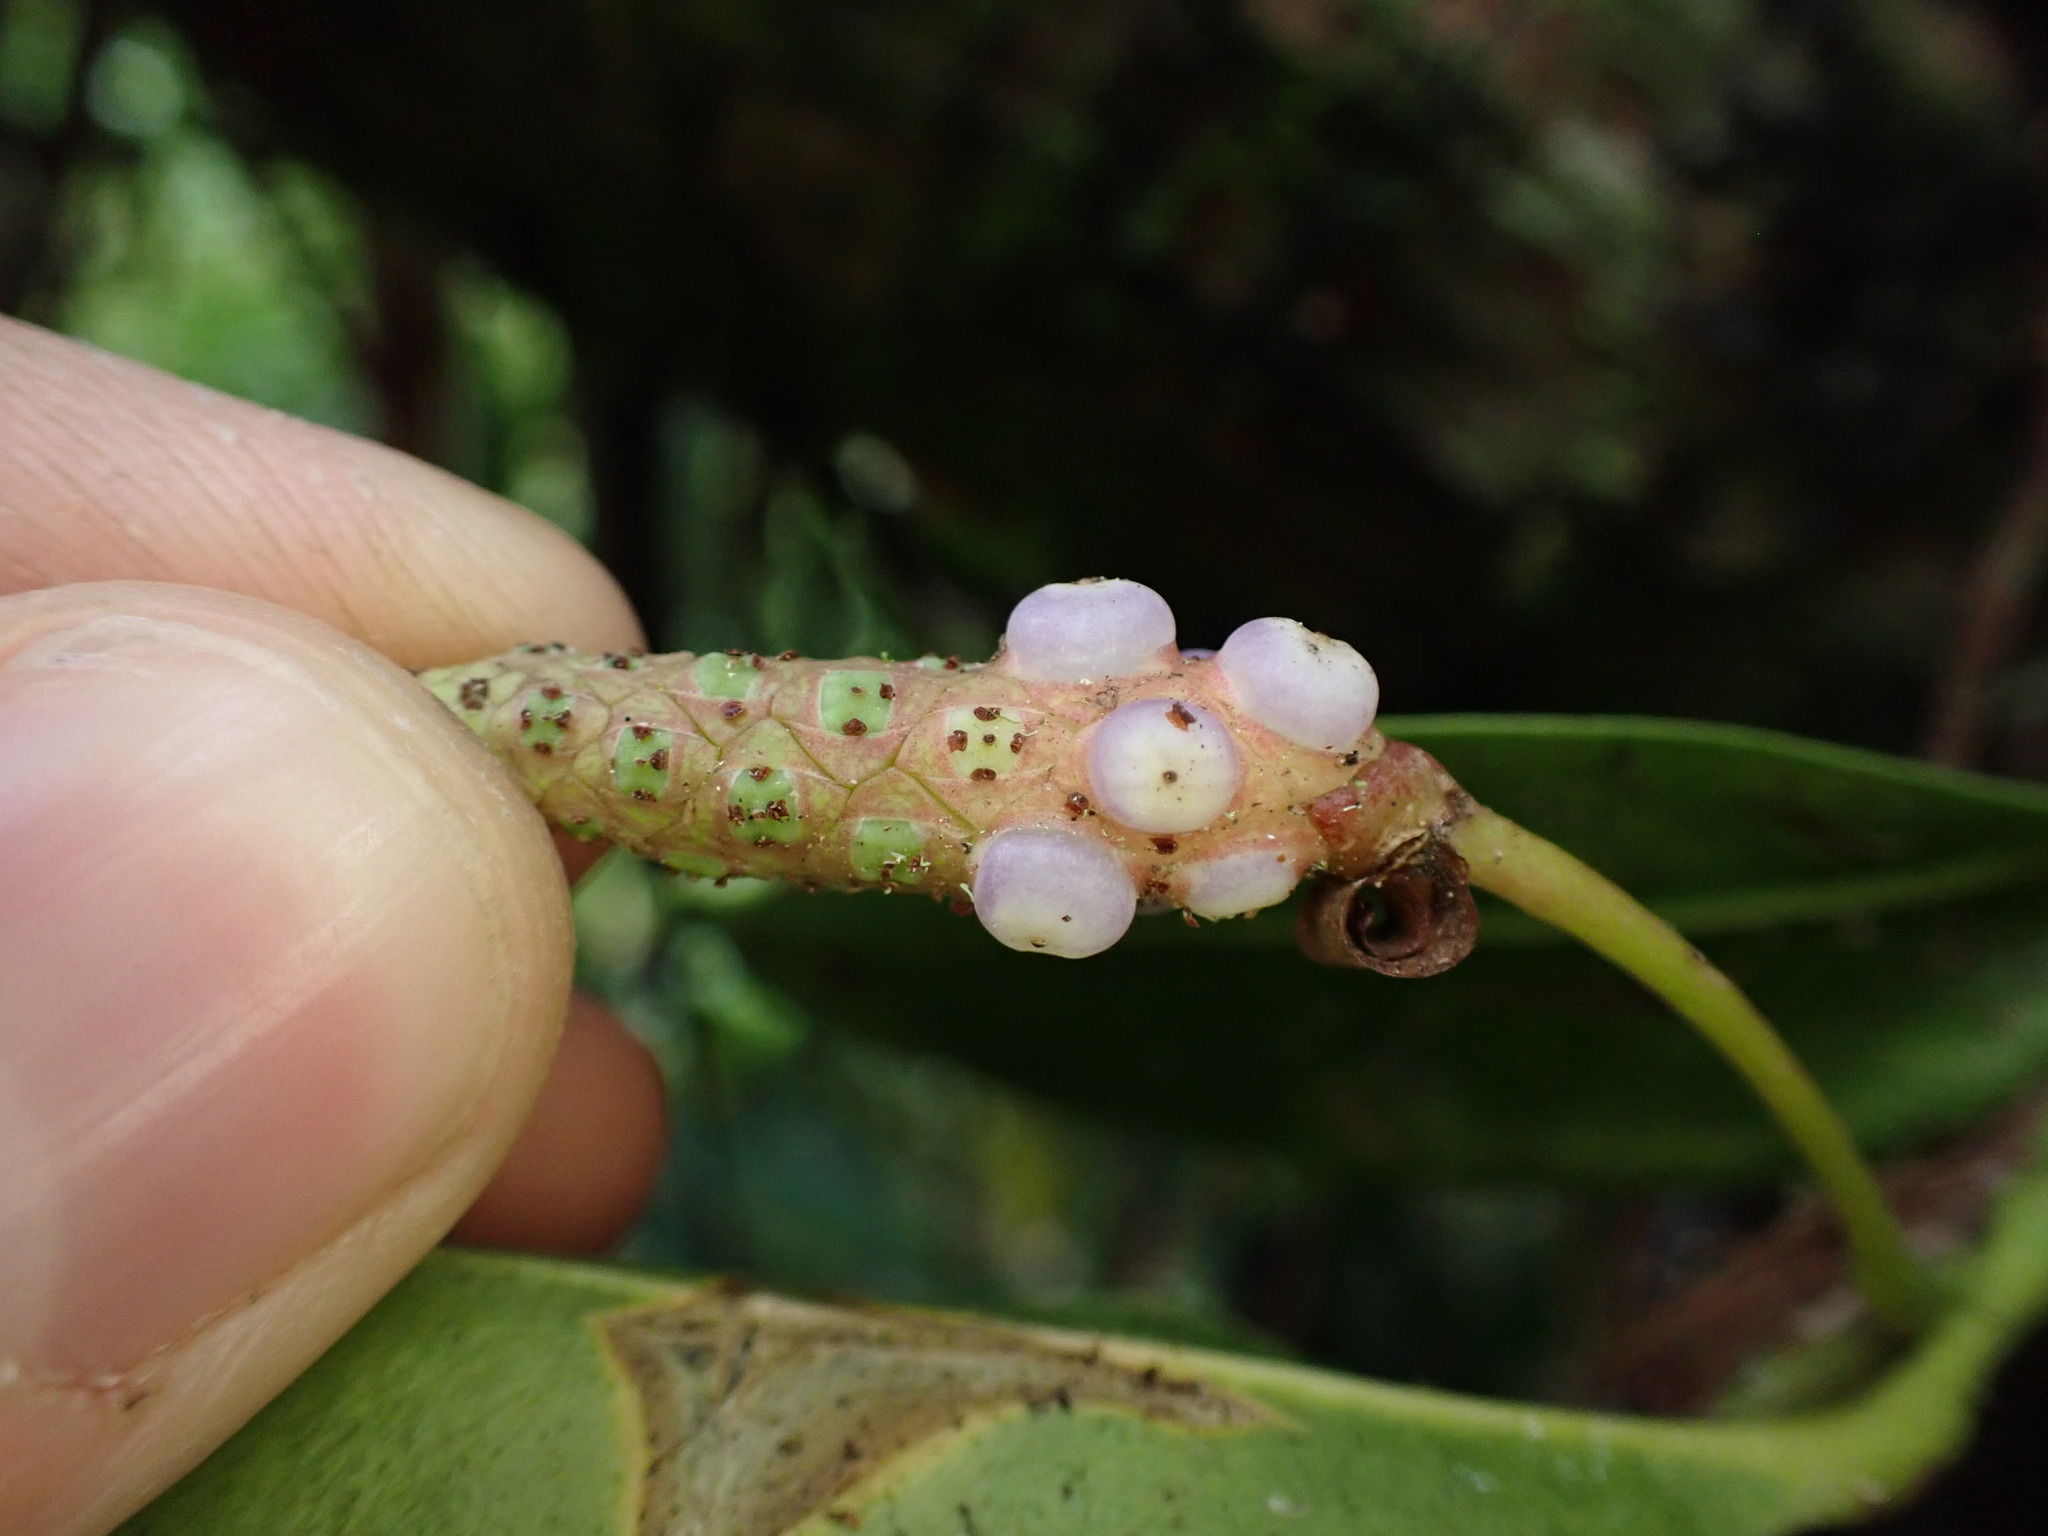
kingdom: Plantae
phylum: Tracheophyta
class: Liliopsida
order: Alismatales
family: Araceae
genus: Anthurium
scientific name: Anthurium scandens
